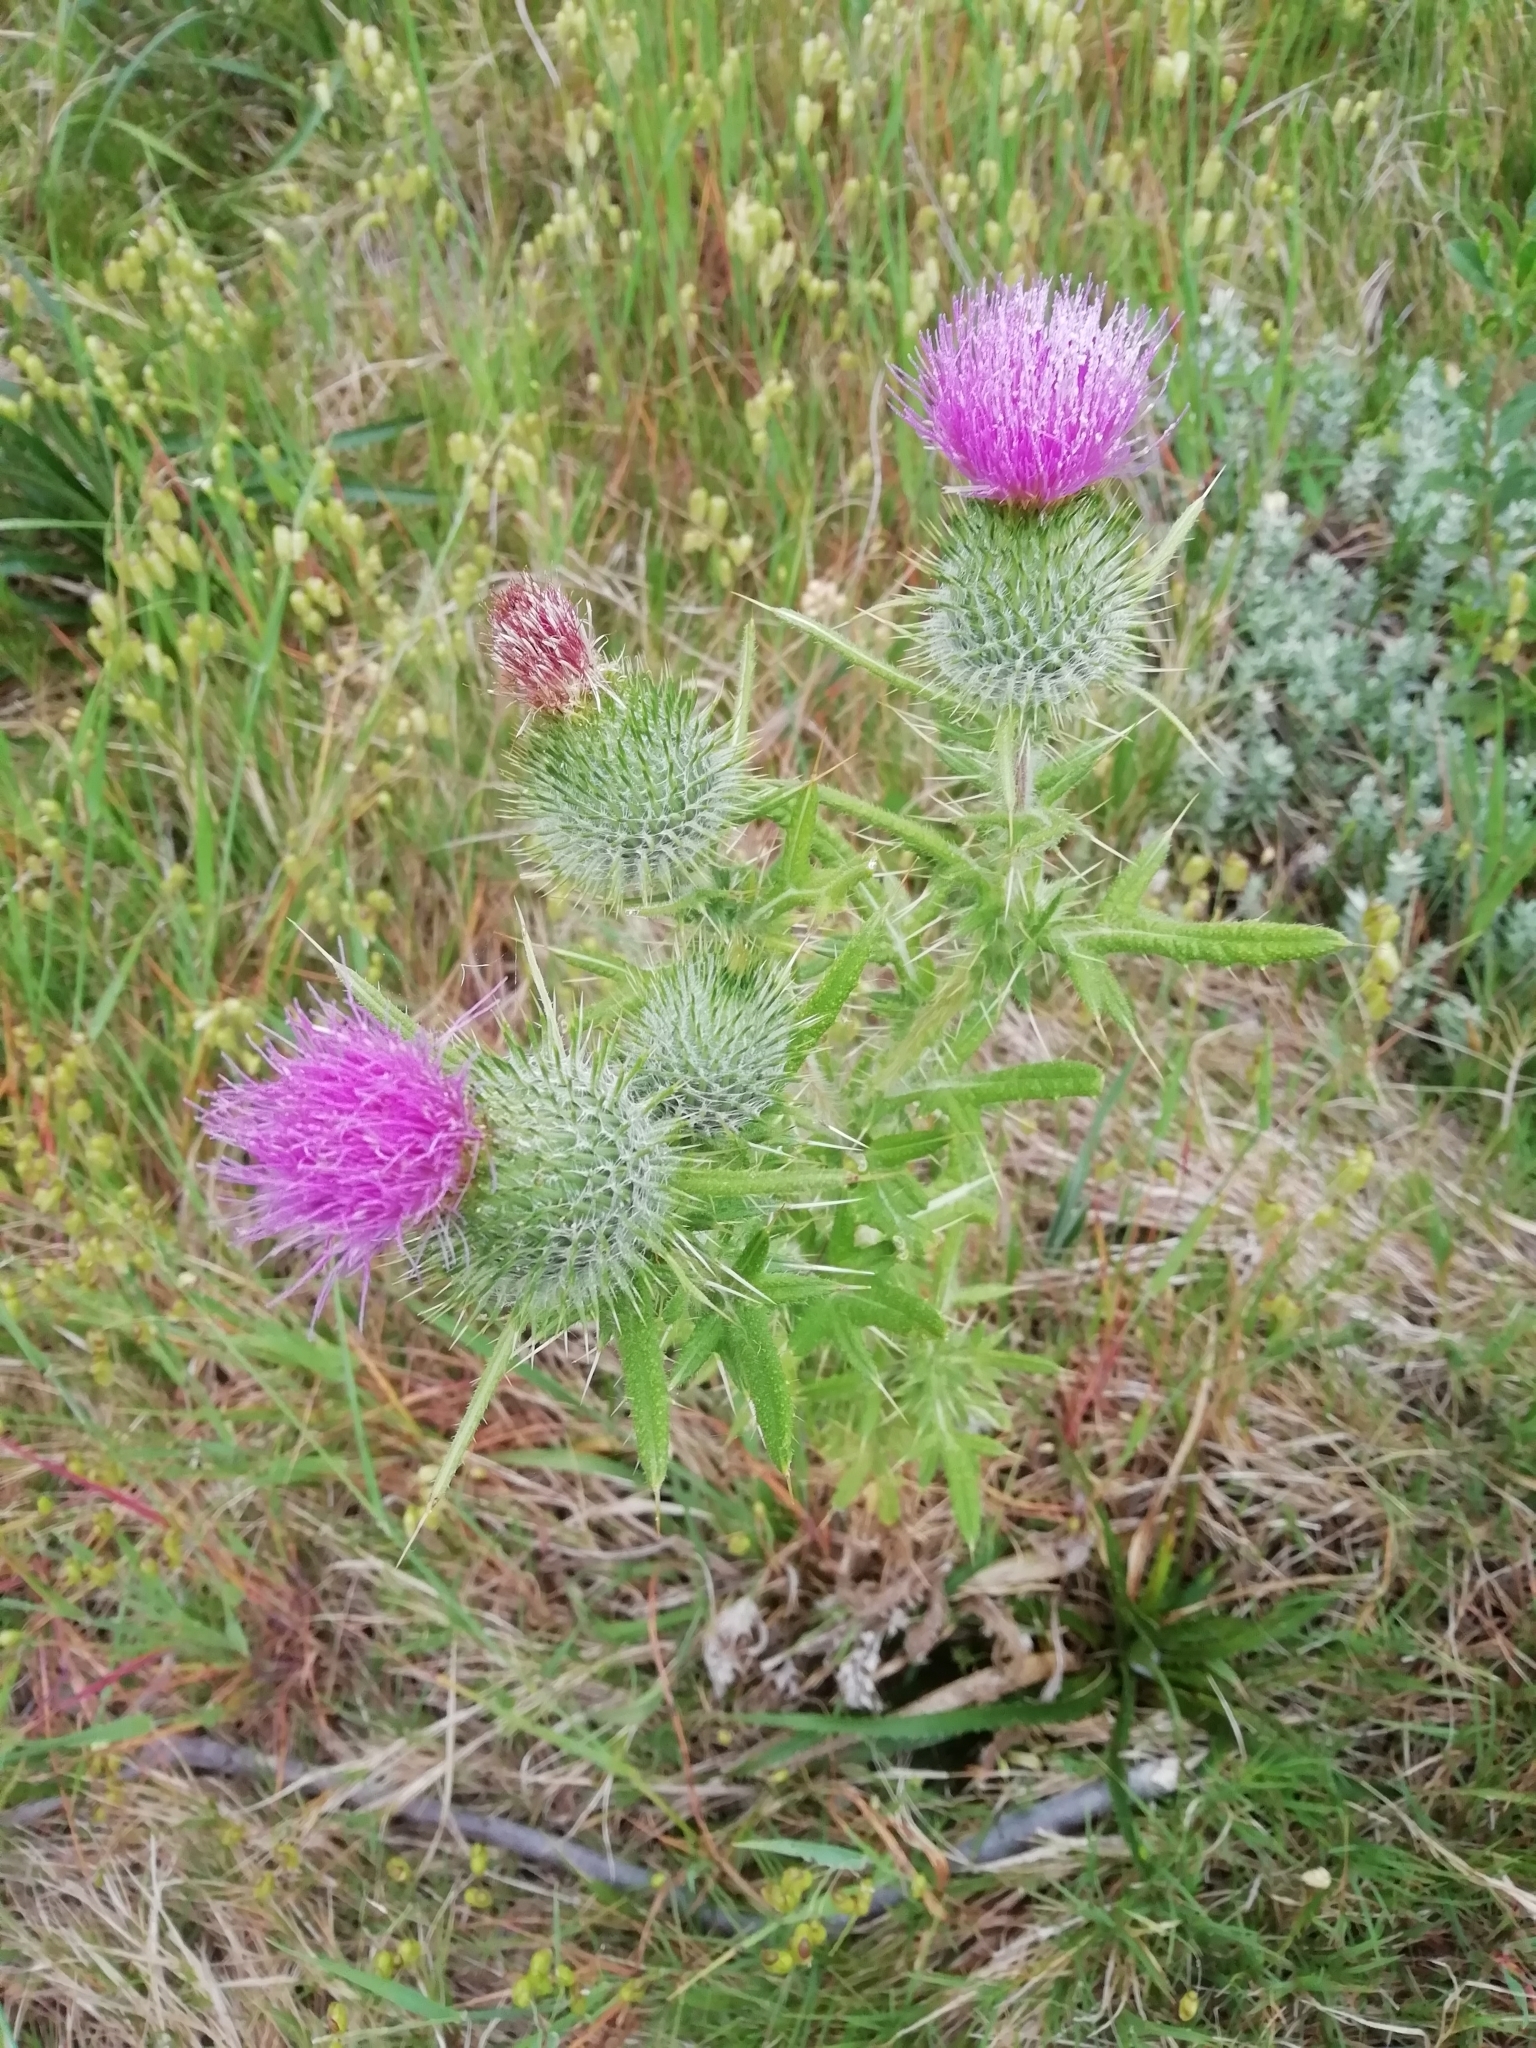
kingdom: Plantae
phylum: Tracheophyta
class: Magnoliopsida
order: Asterales
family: Asteraceae
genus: Cirsium
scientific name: Cirsium vulgare
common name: Bull thistle
